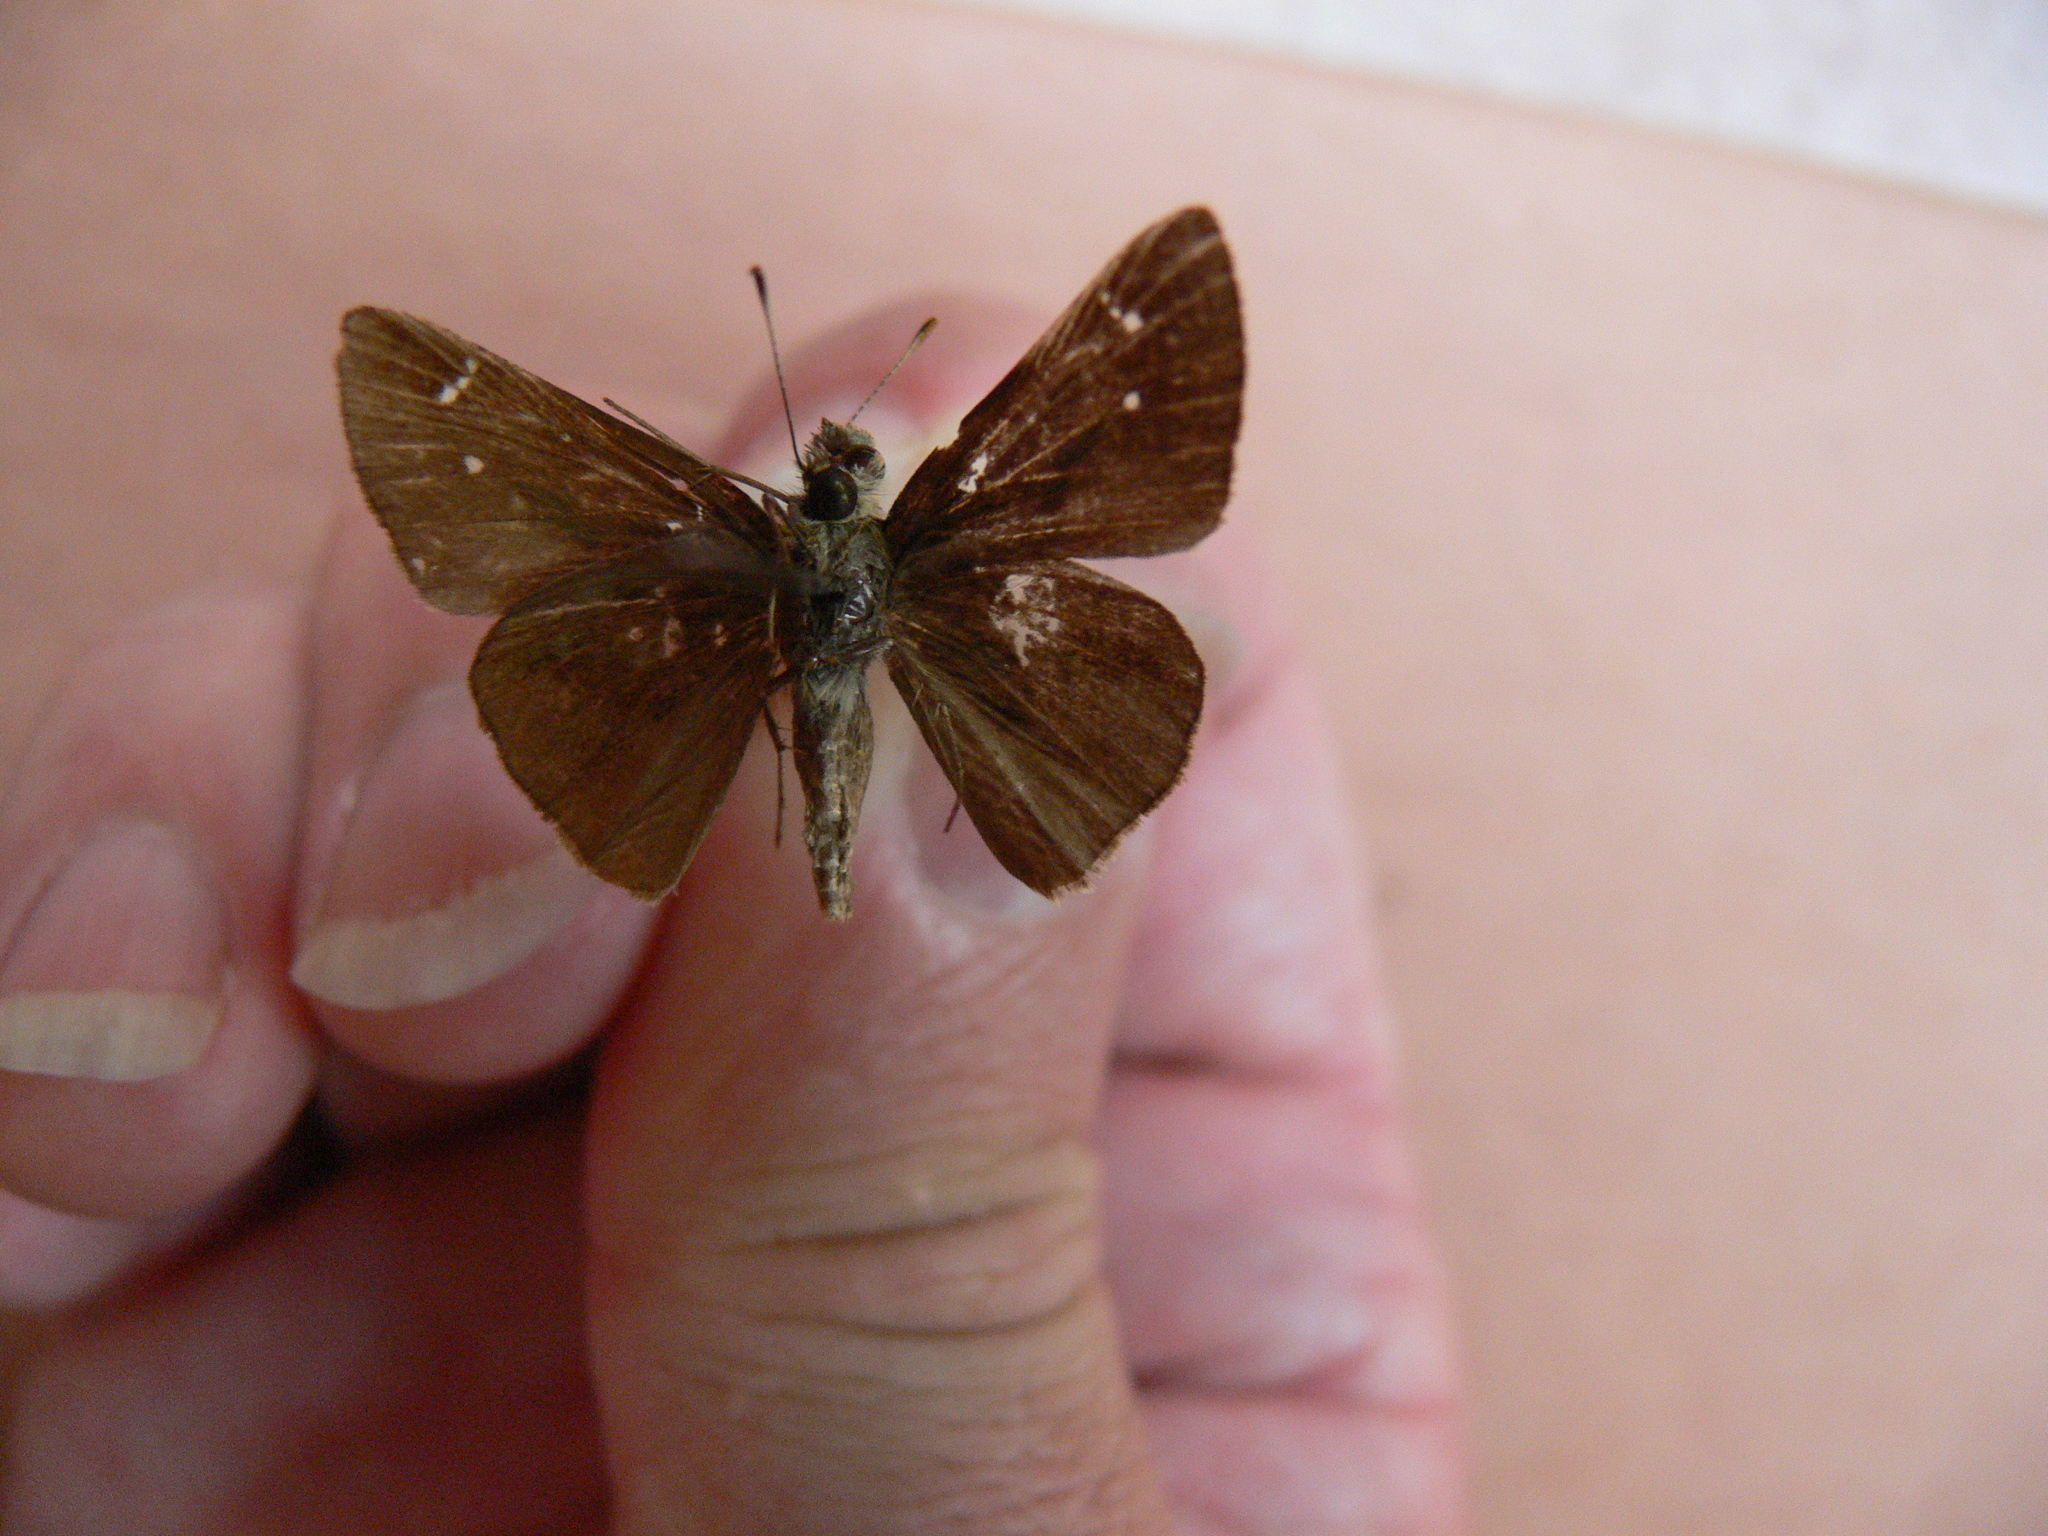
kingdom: Animalia
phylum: Arthropoda
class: Insecta
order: Lepidoptera
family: Hesperiidae
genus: Lerema
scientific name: Lerema accius
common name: Clouded skipper
